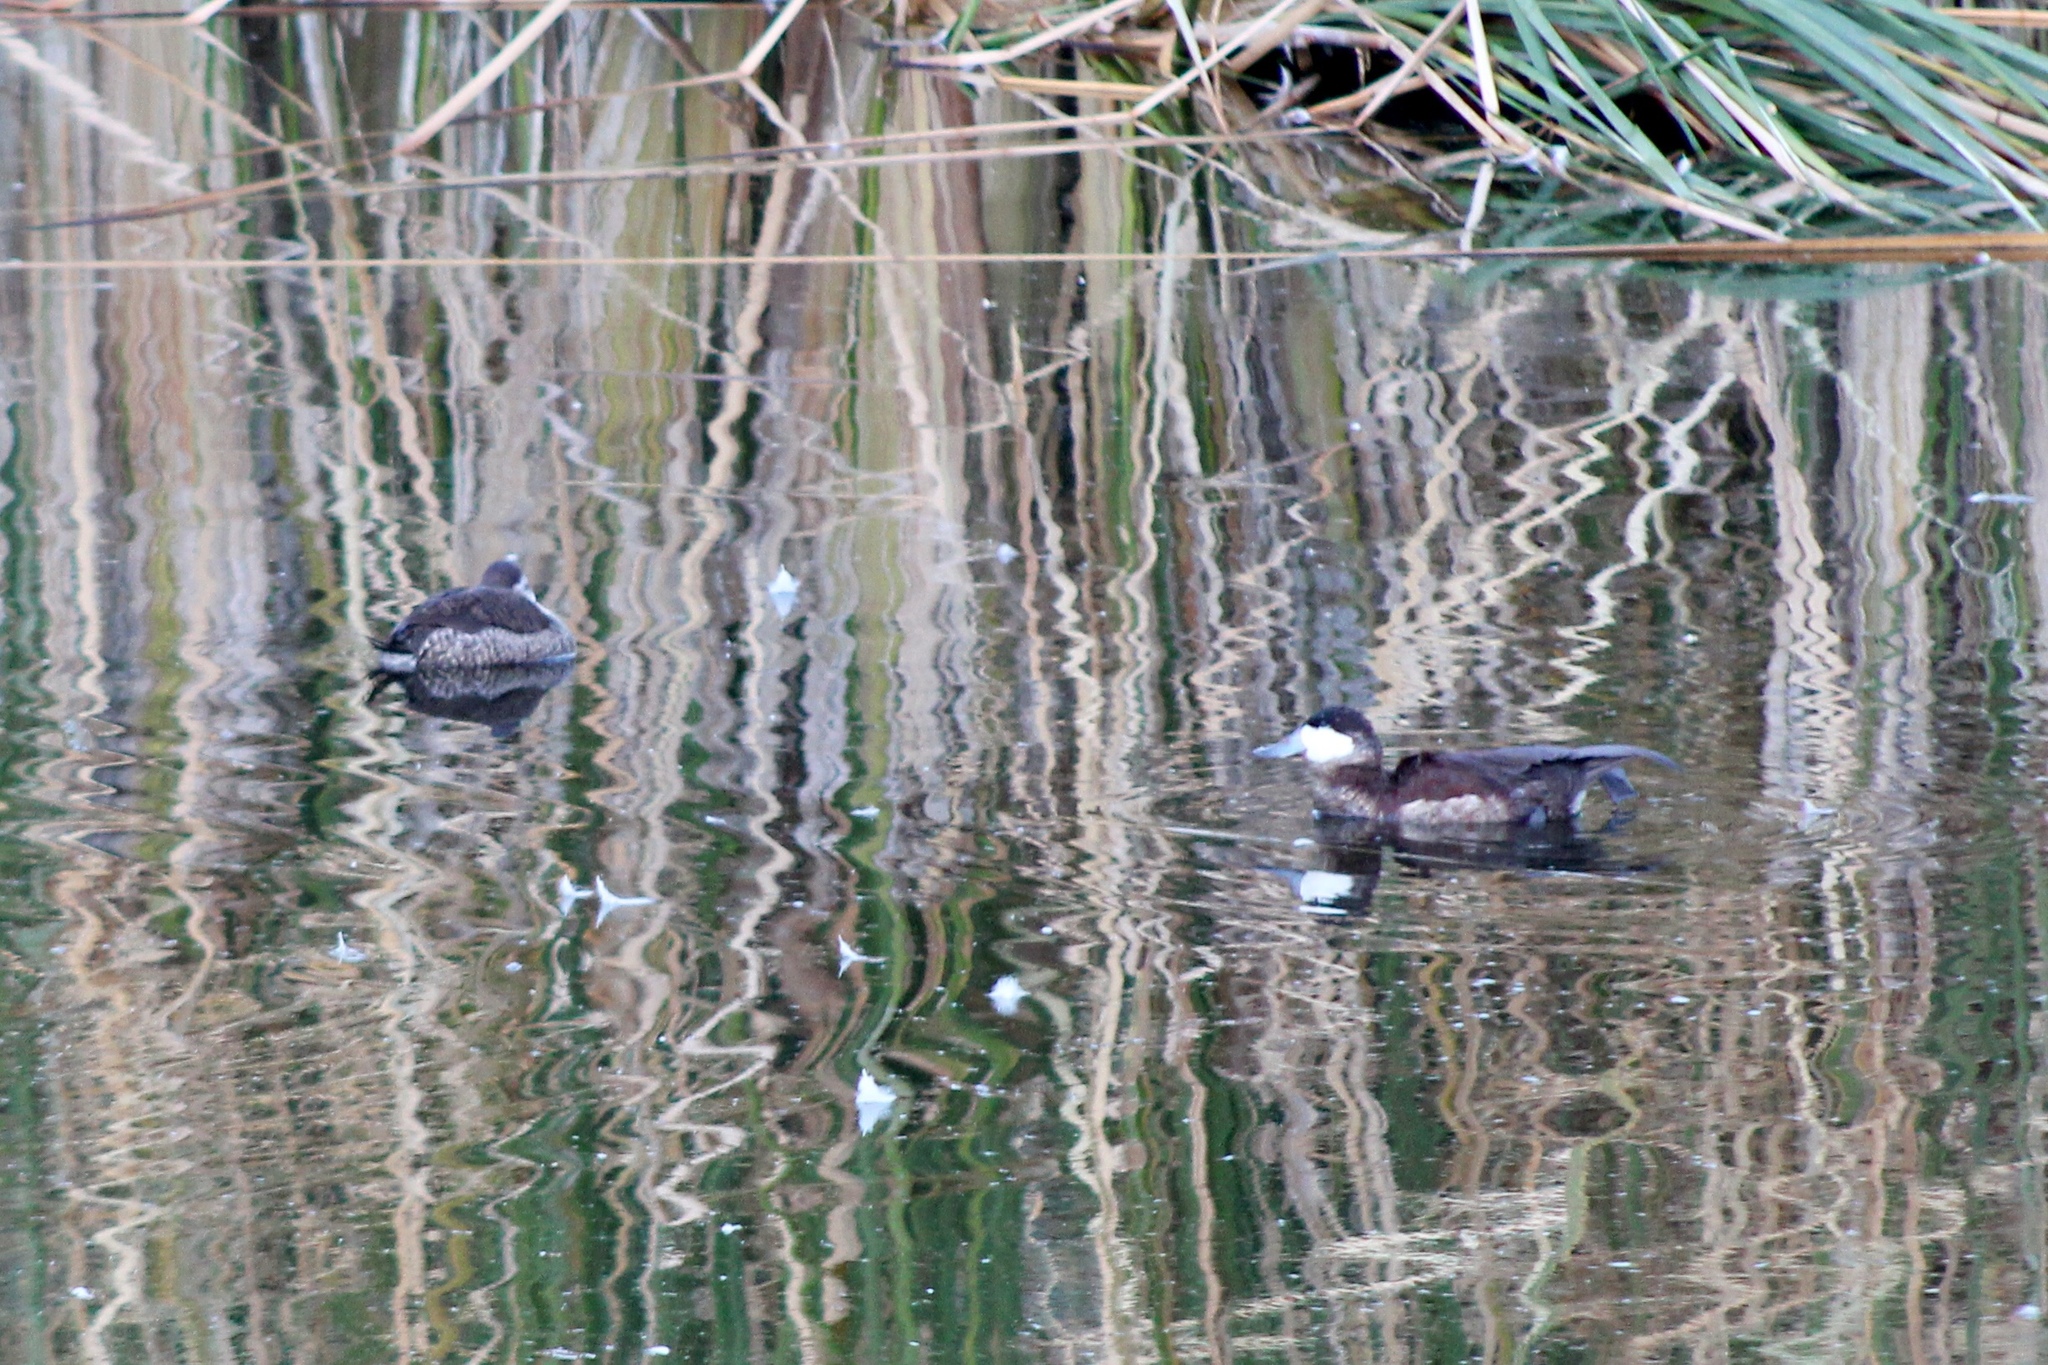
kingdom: Animalia
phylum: Chordata
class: Aves
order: Anseriformes
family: Anatidae
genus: Oxyura
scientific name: Oxyura jamaicensis
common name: Ruddy duck
